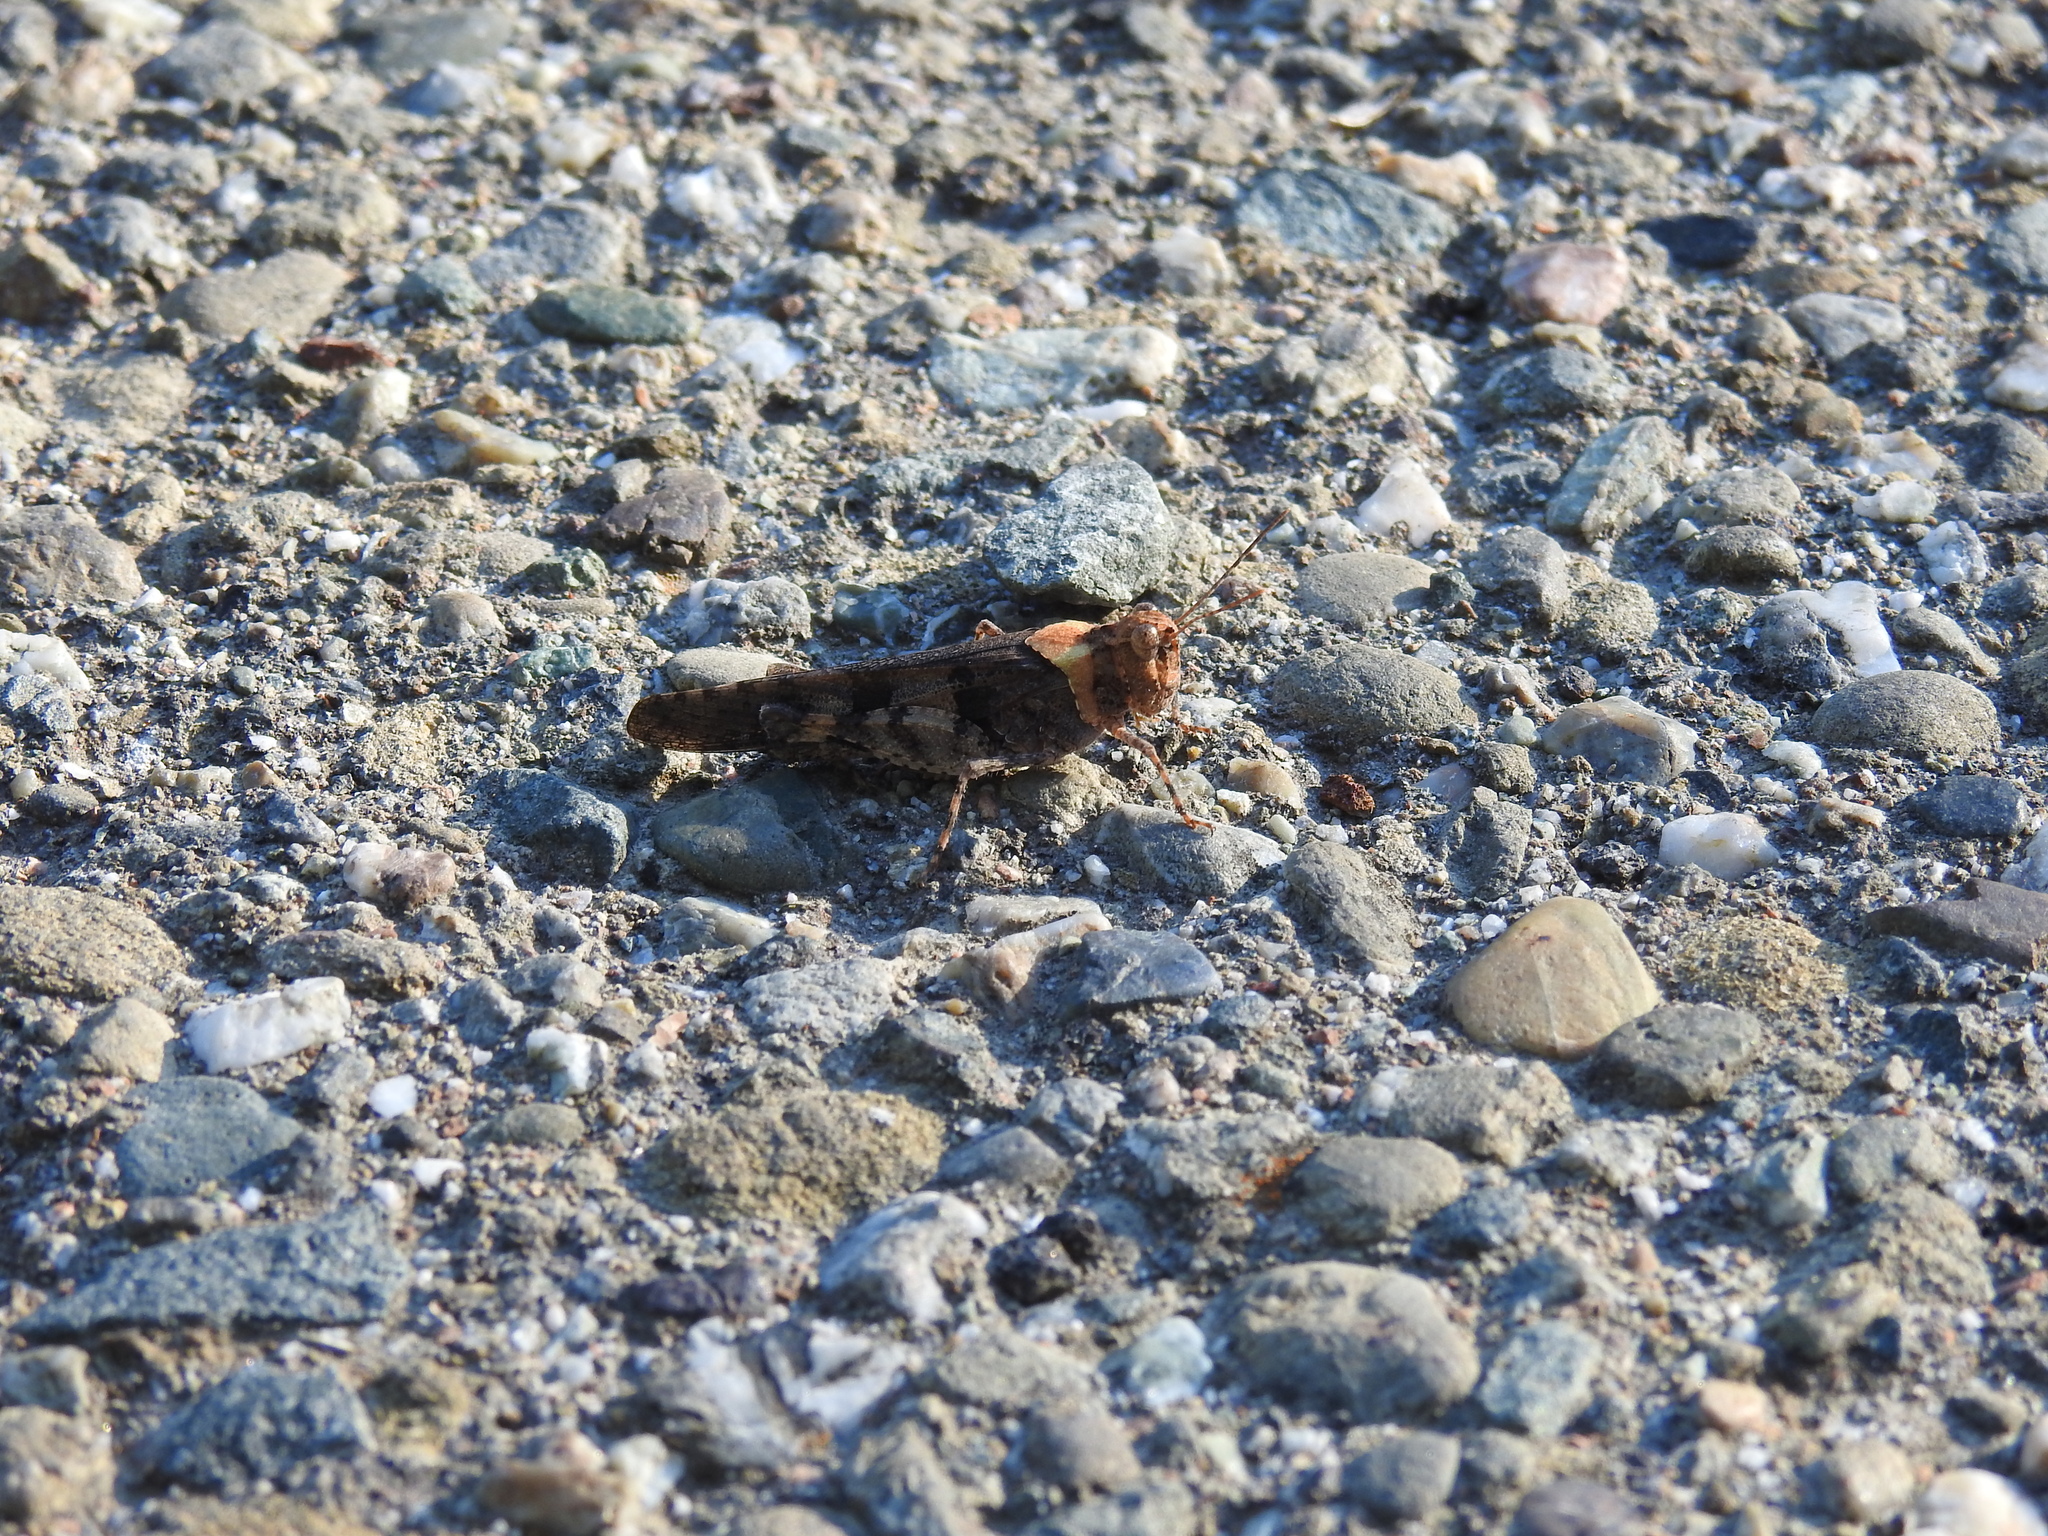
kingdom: Animalia
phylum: Arthropoda
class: Insecta
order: Orthoptera
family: Acrididae
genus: Trimerotropis
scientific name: Trimerotropis fontana
